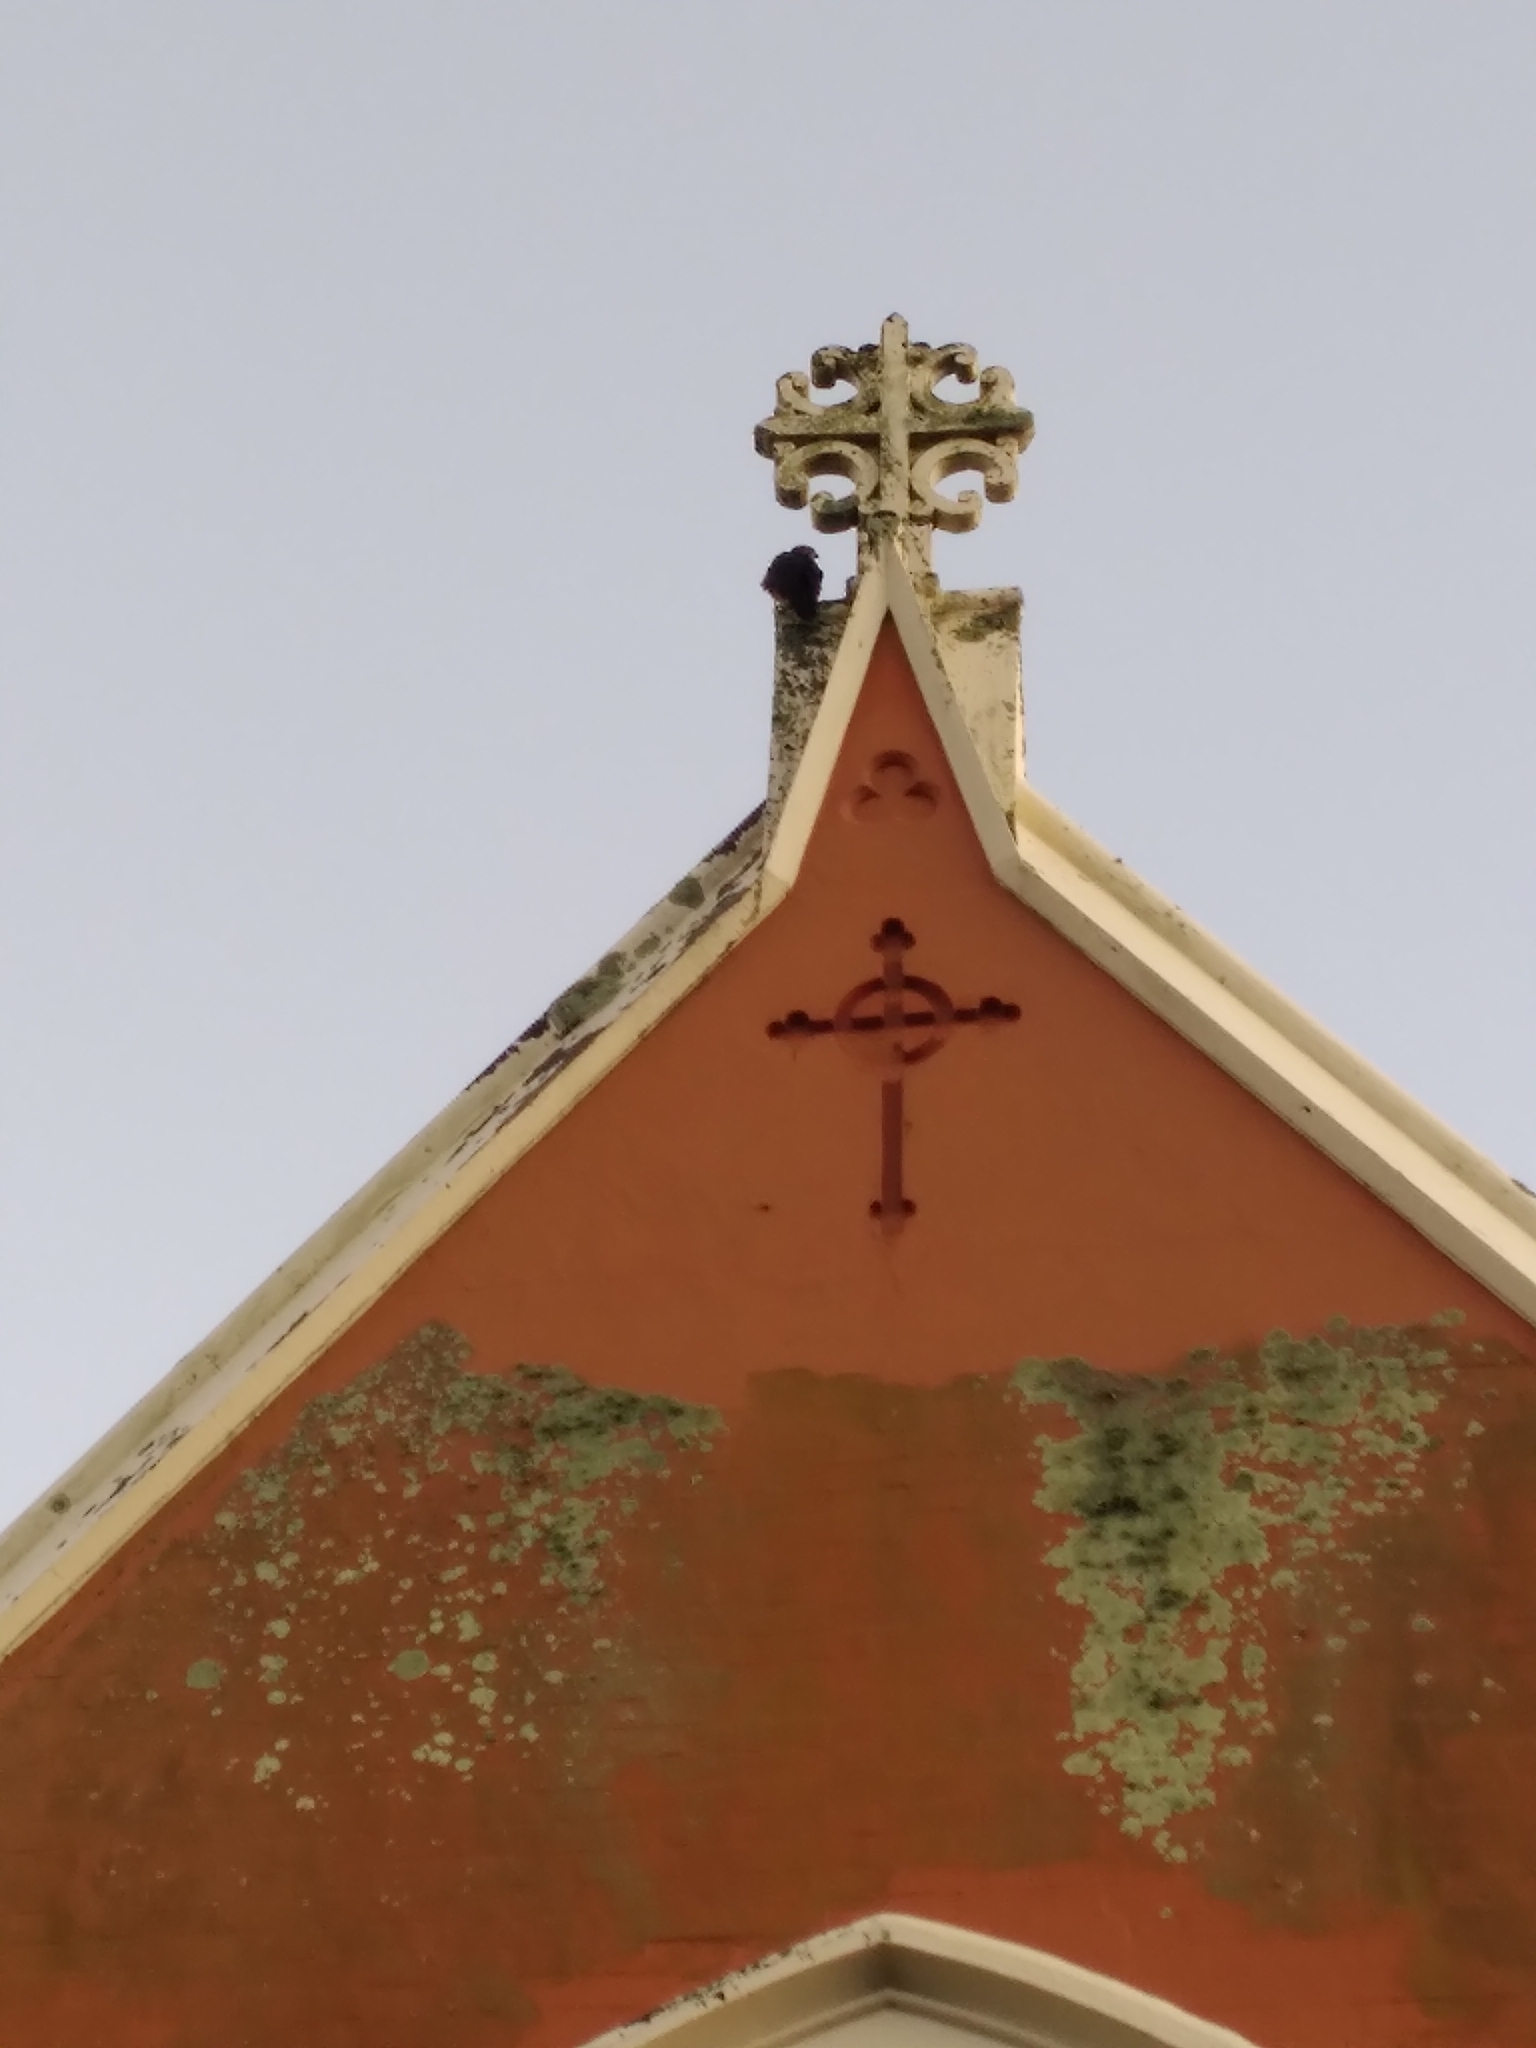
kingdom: Animalia
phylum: Chordata
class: Aves
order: Falconiformes
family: Falconidae
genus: Falco
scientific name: Falco novaeseelandiae
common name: New zealand falcon
